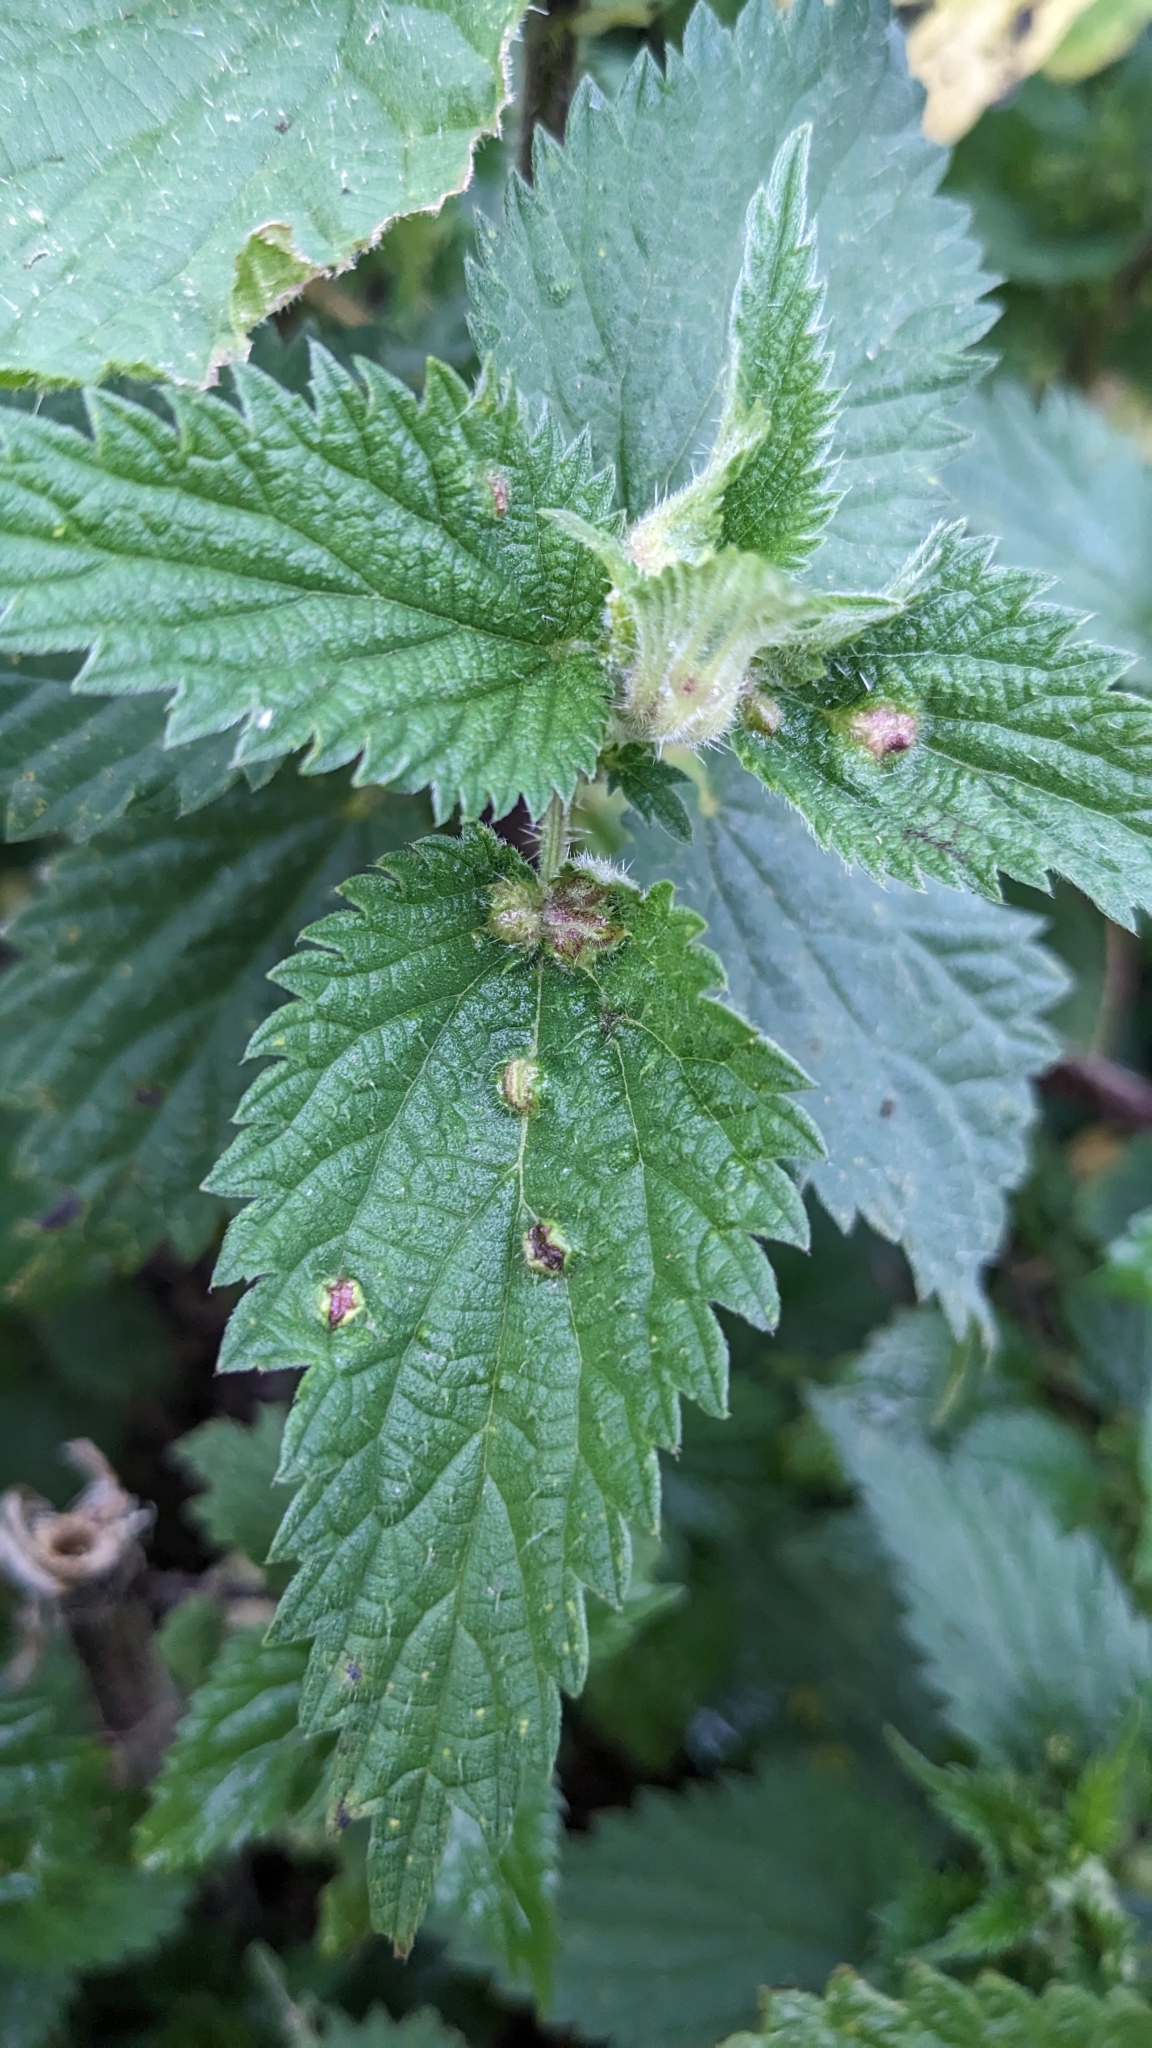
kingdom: Animalia
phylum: Arthropoda
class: Insecta
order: Diptera
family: Cecidomyiidae
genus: Dasineura
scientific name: Dasineura urticae
